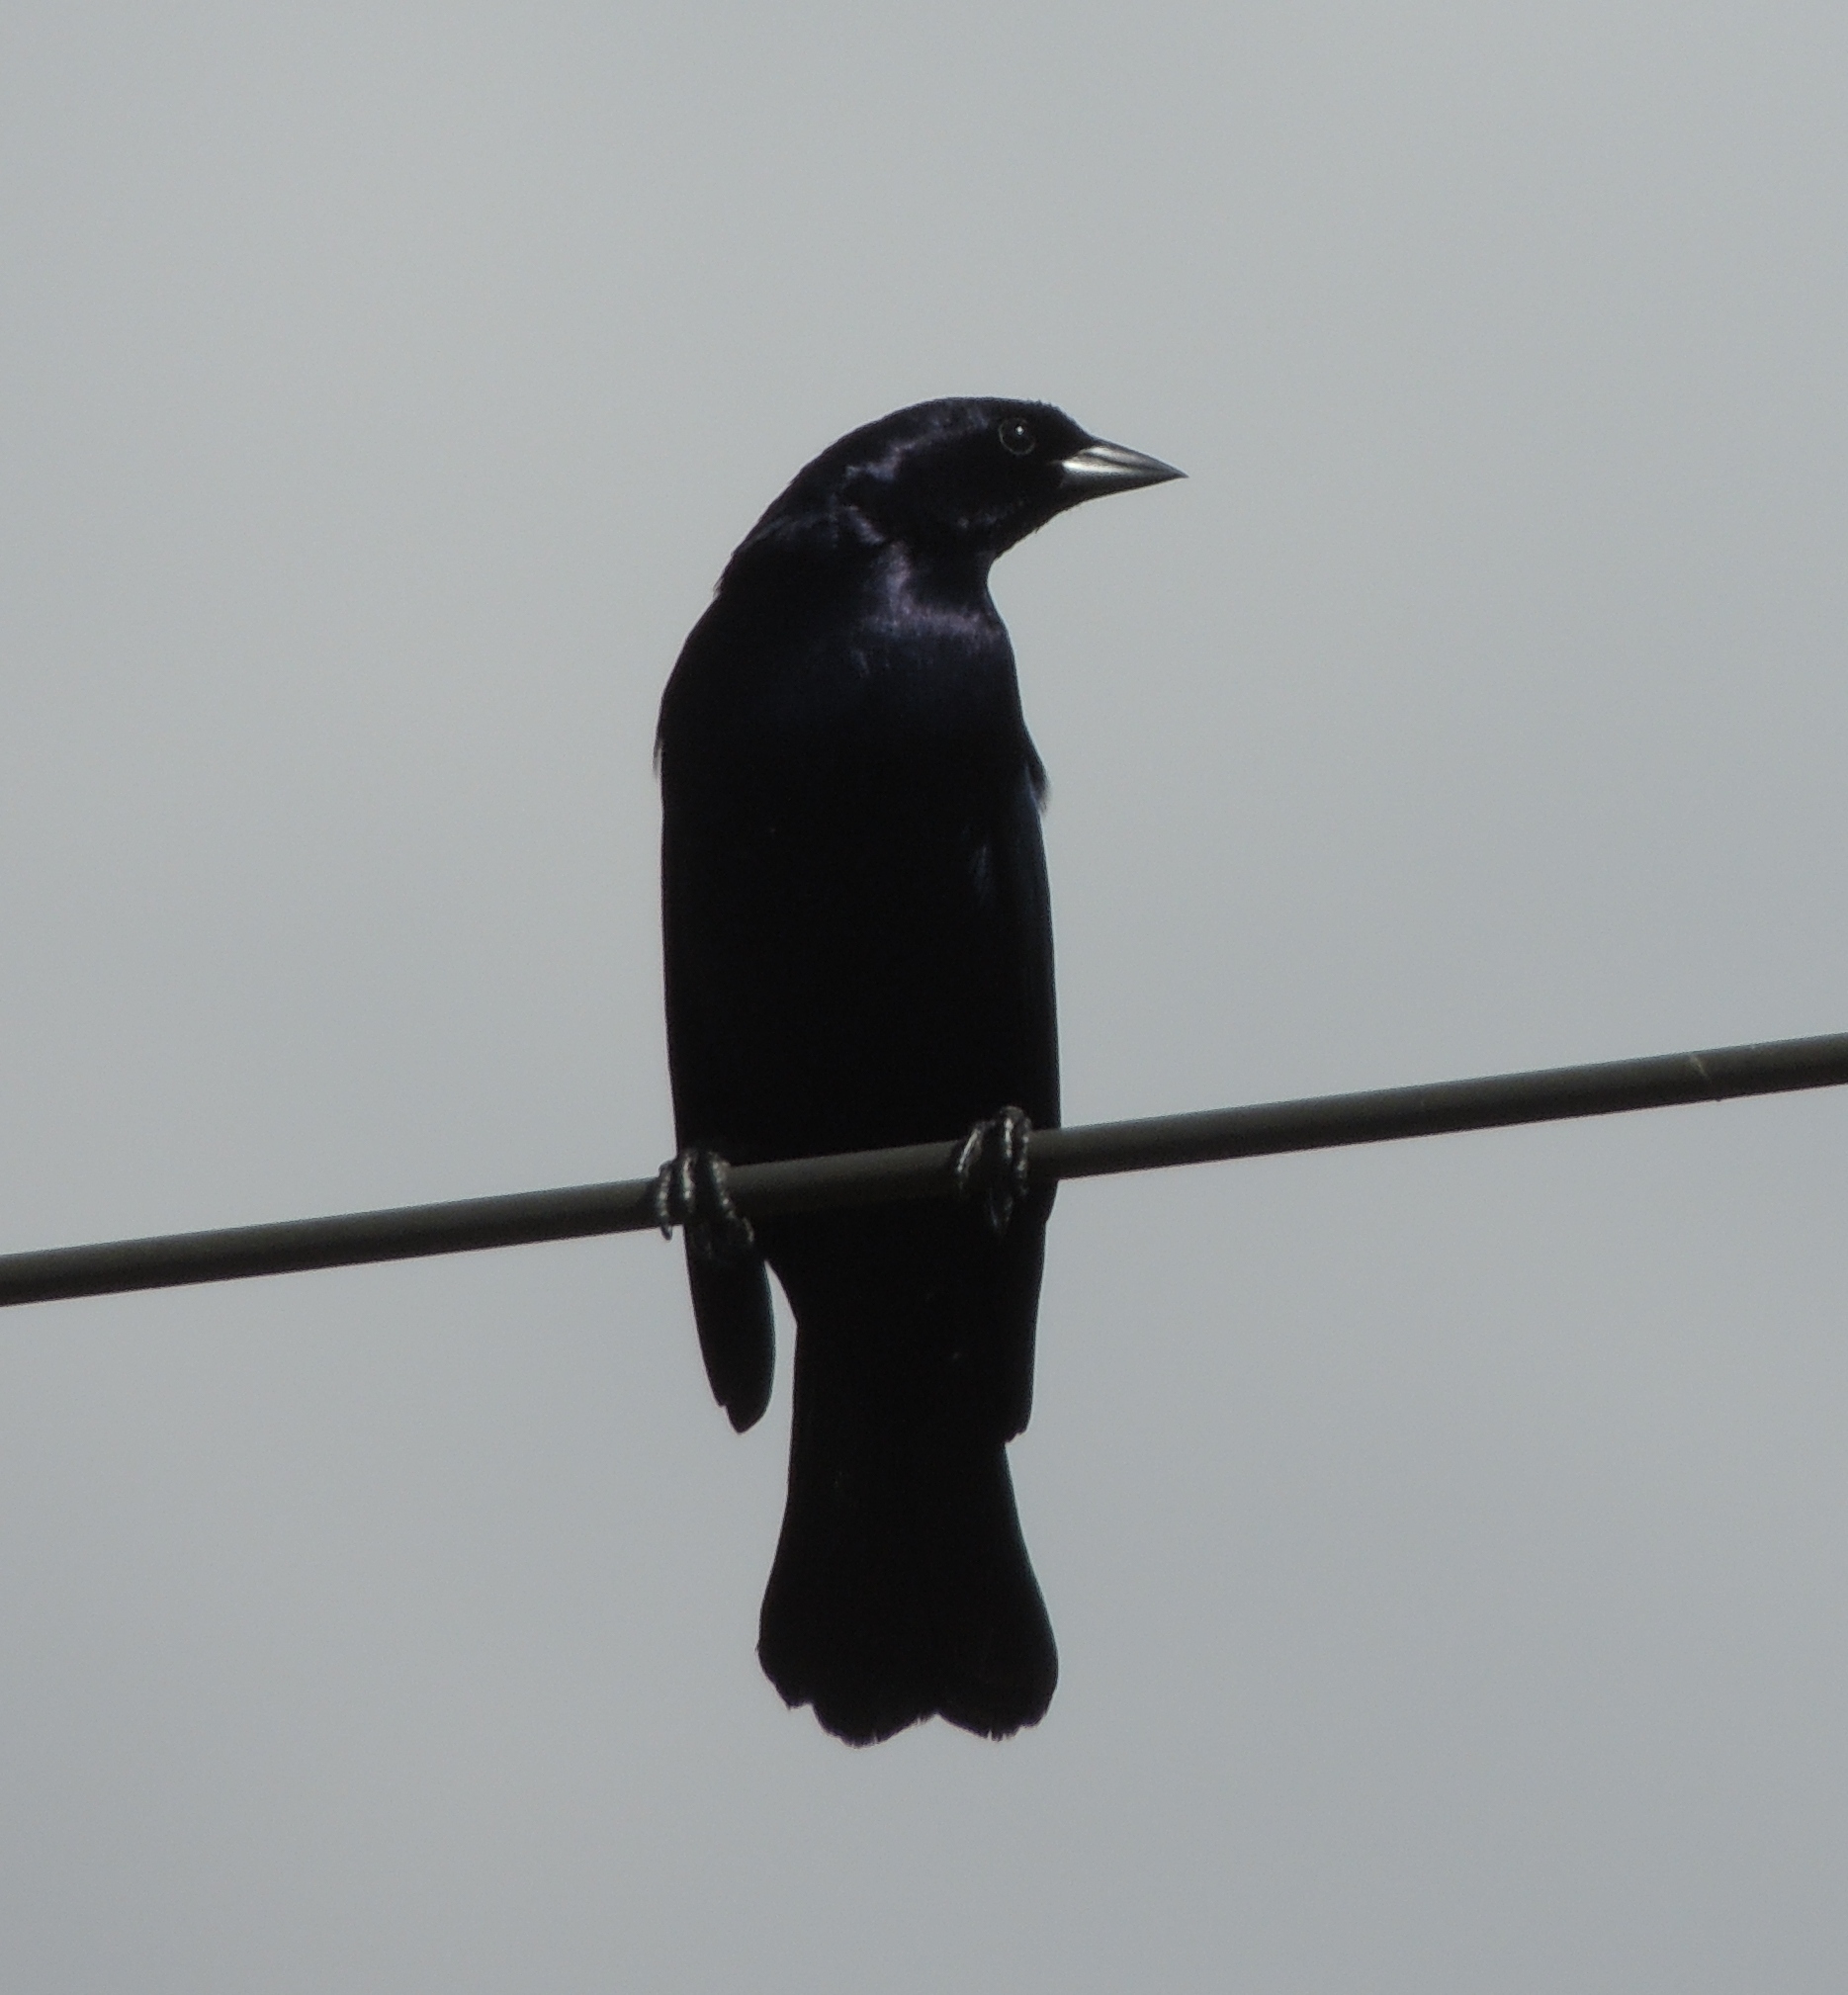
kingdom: Animalia
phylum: Chordata
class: Aves
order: Passeriformes
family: Icteridae
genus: Molothrus
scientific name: Molothrus bonariensis
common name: Shiny cowbird
